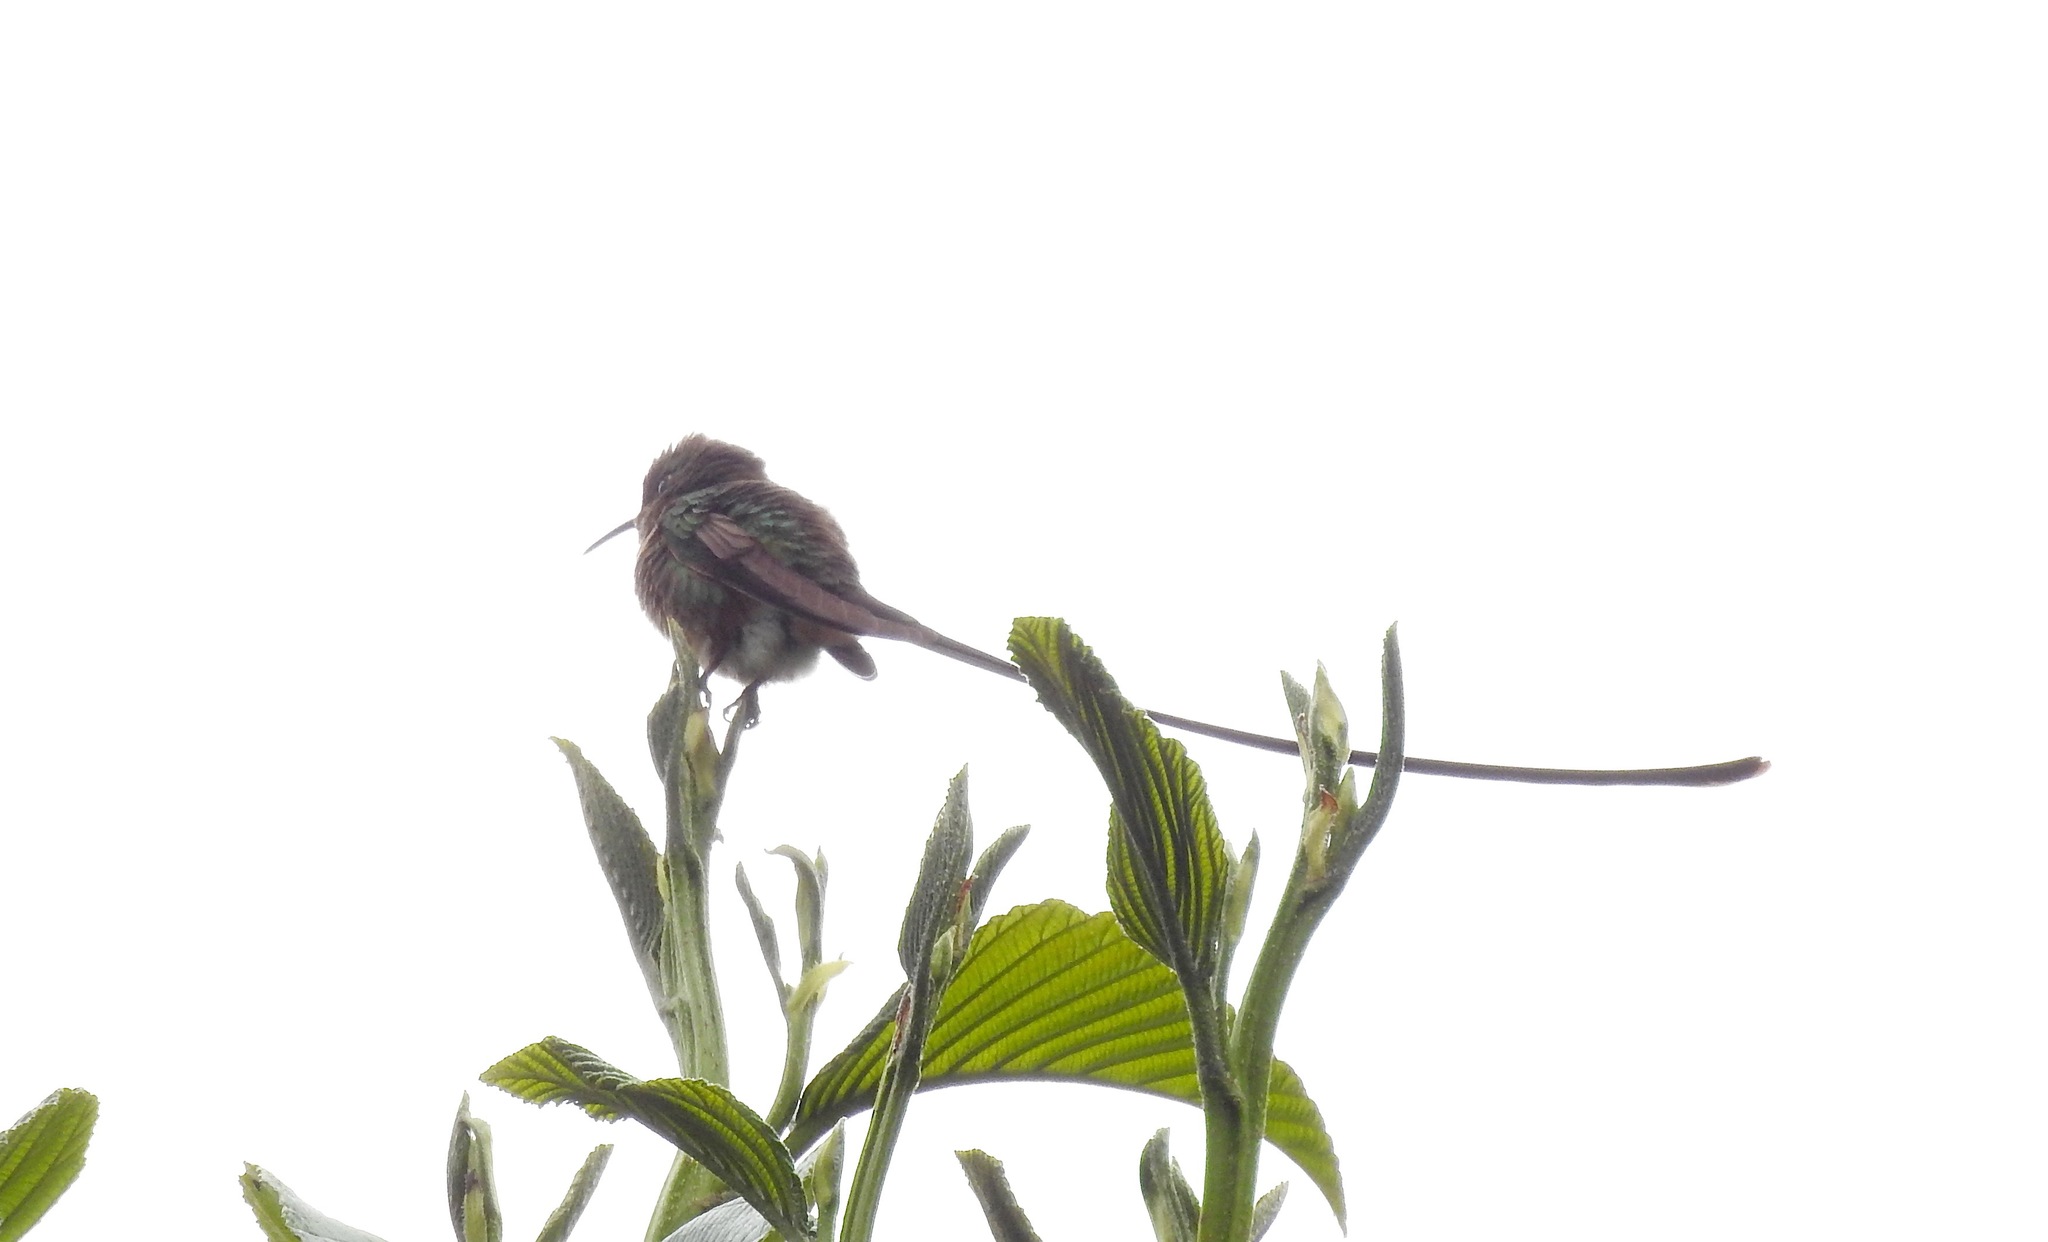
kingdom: Animalia
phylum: Chordata
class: Aves
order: Apodiformes
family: Trochilidae
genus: Lesbia
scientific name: Lesbia victoriae
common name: Black-tailed trainbearer
